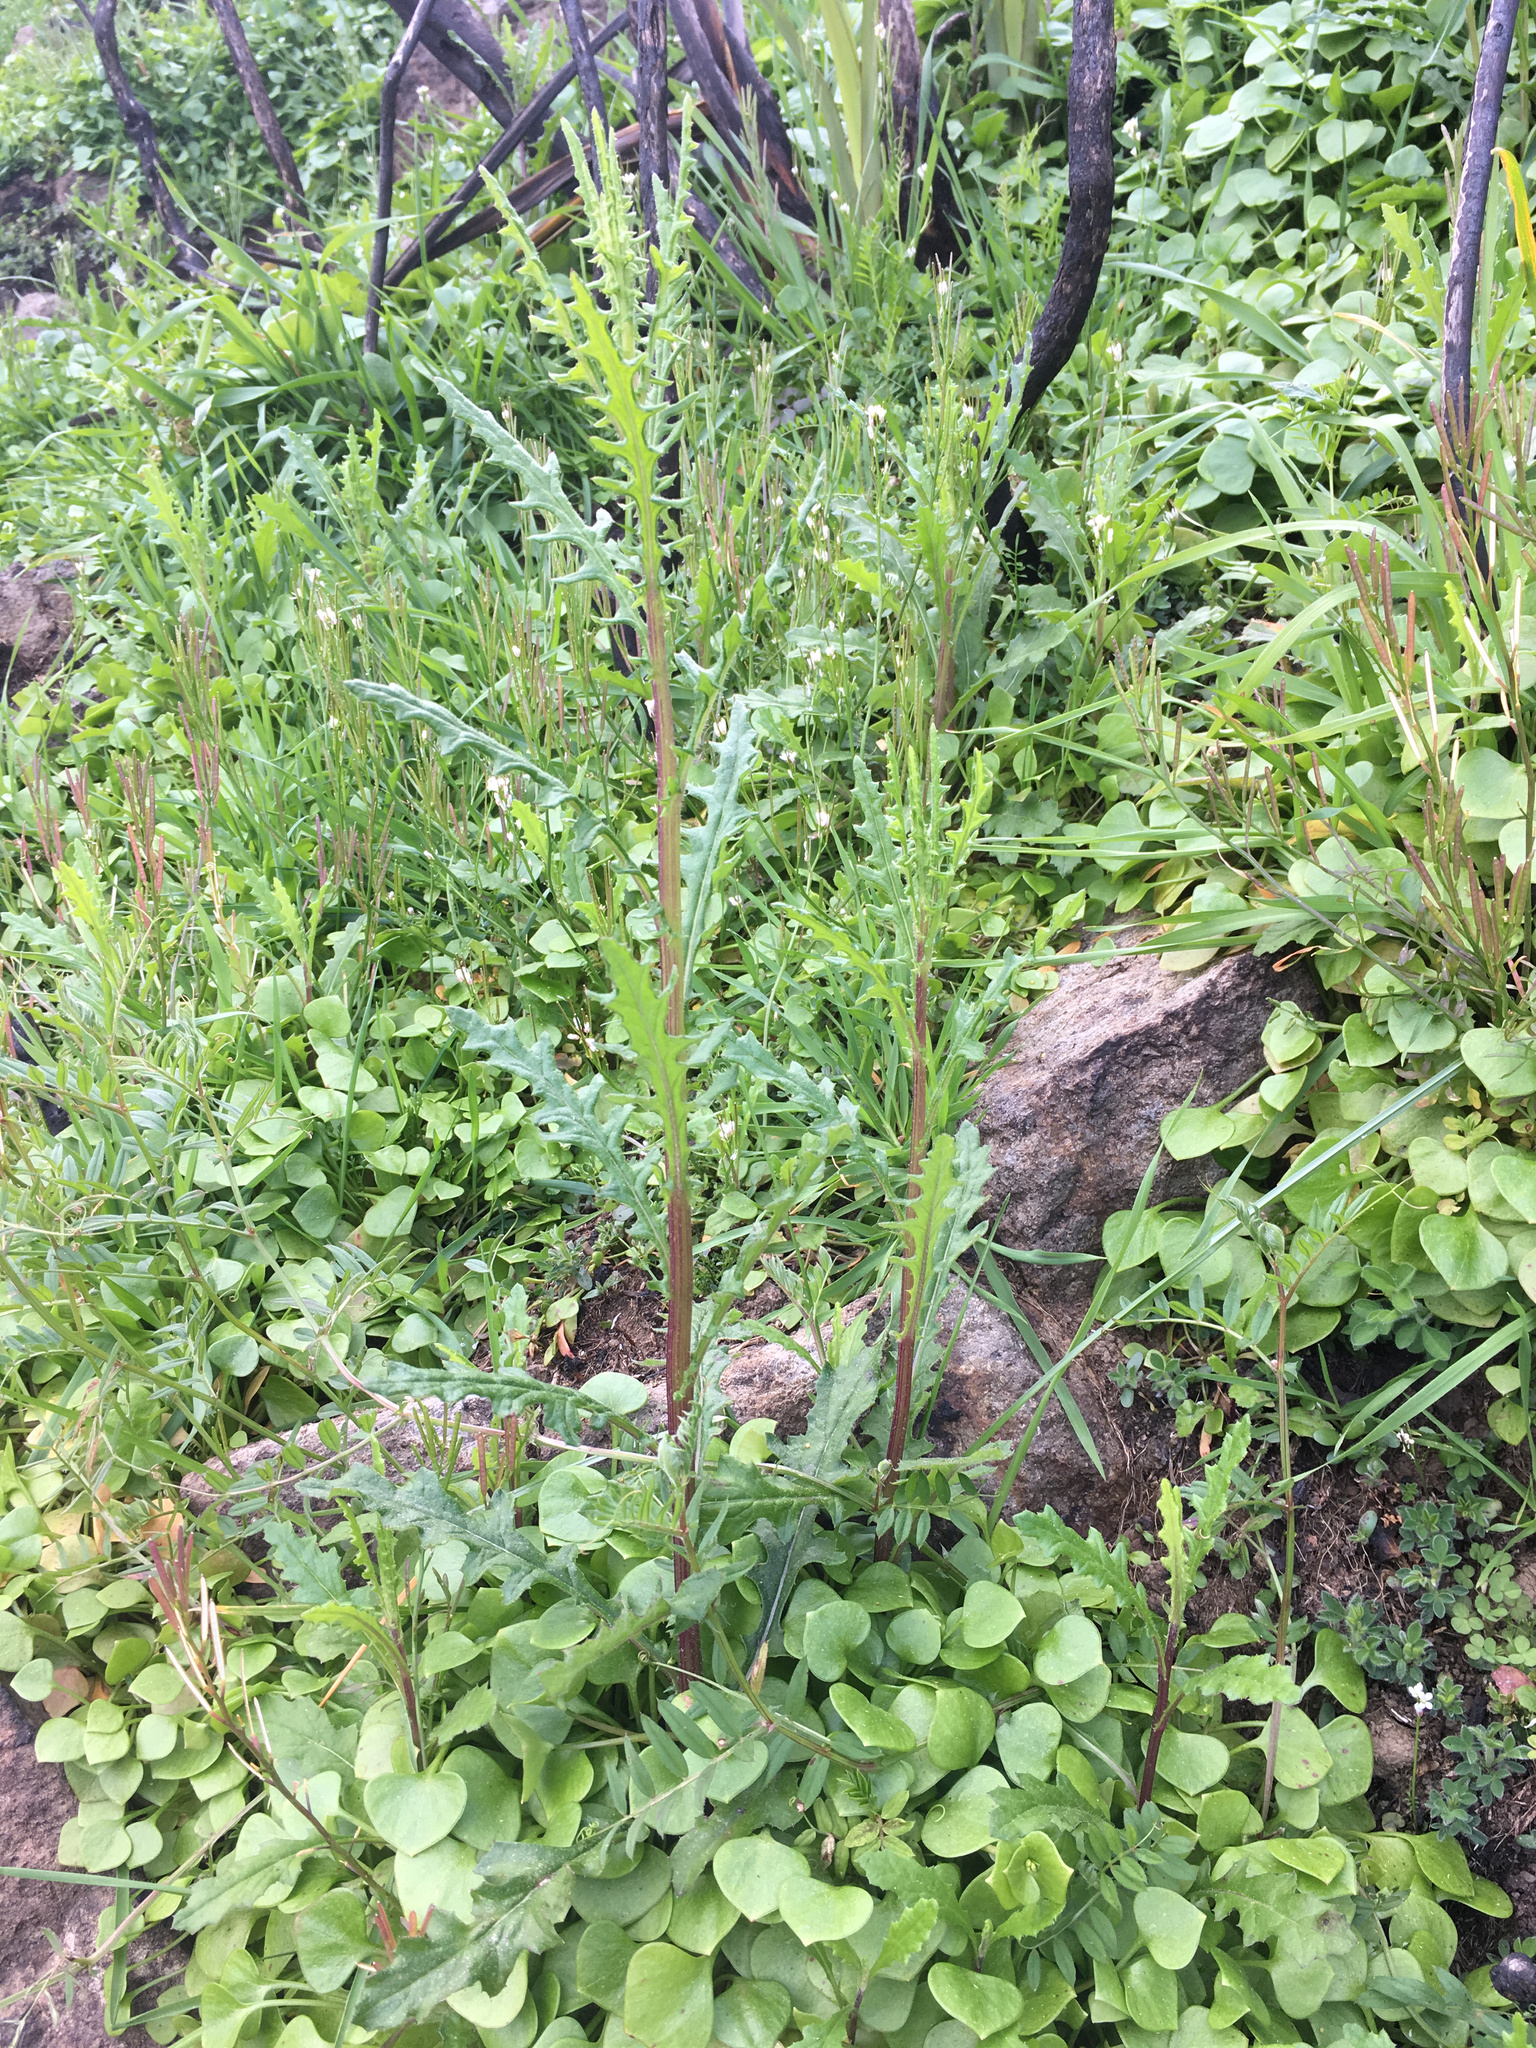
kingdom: Plantae
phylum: Tracheophyta
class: Magnoliopsida
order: Asterales
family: Asteraceae
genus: Senecio
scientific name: Senecio hispidulus
